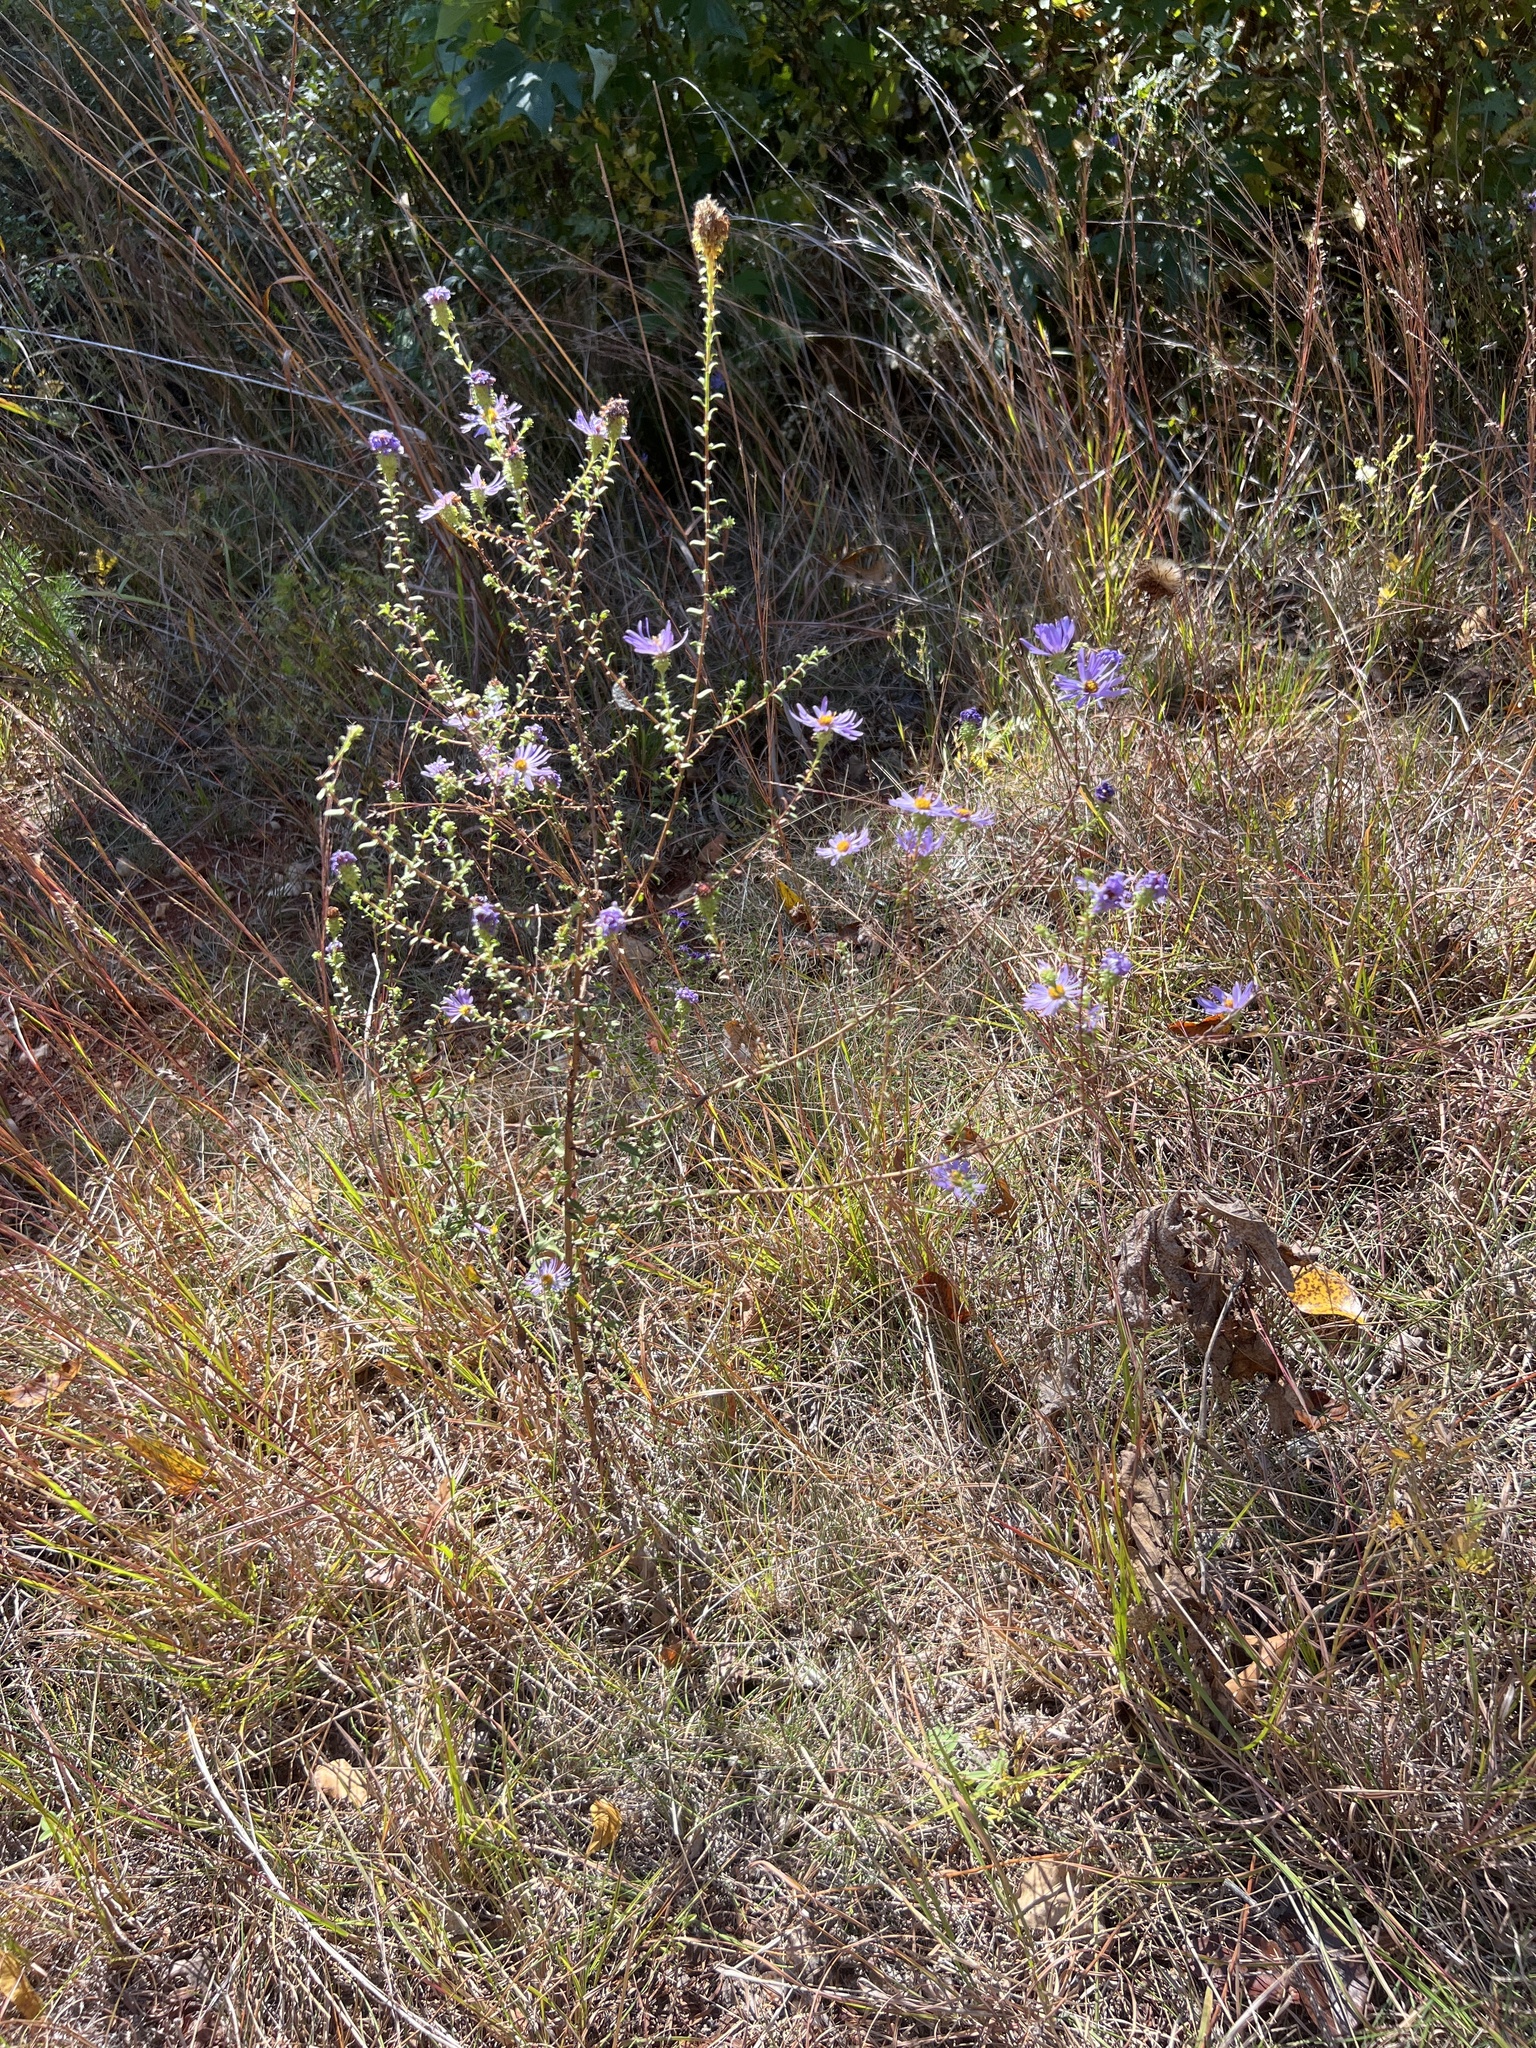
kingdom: Plantae
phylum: Tracheophyta
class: Magnoliopsida
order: Asterales
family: Asteraceae
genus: Symphyotrichum
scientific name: Symphyotrichum grandiflorum
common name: Big-head aster
